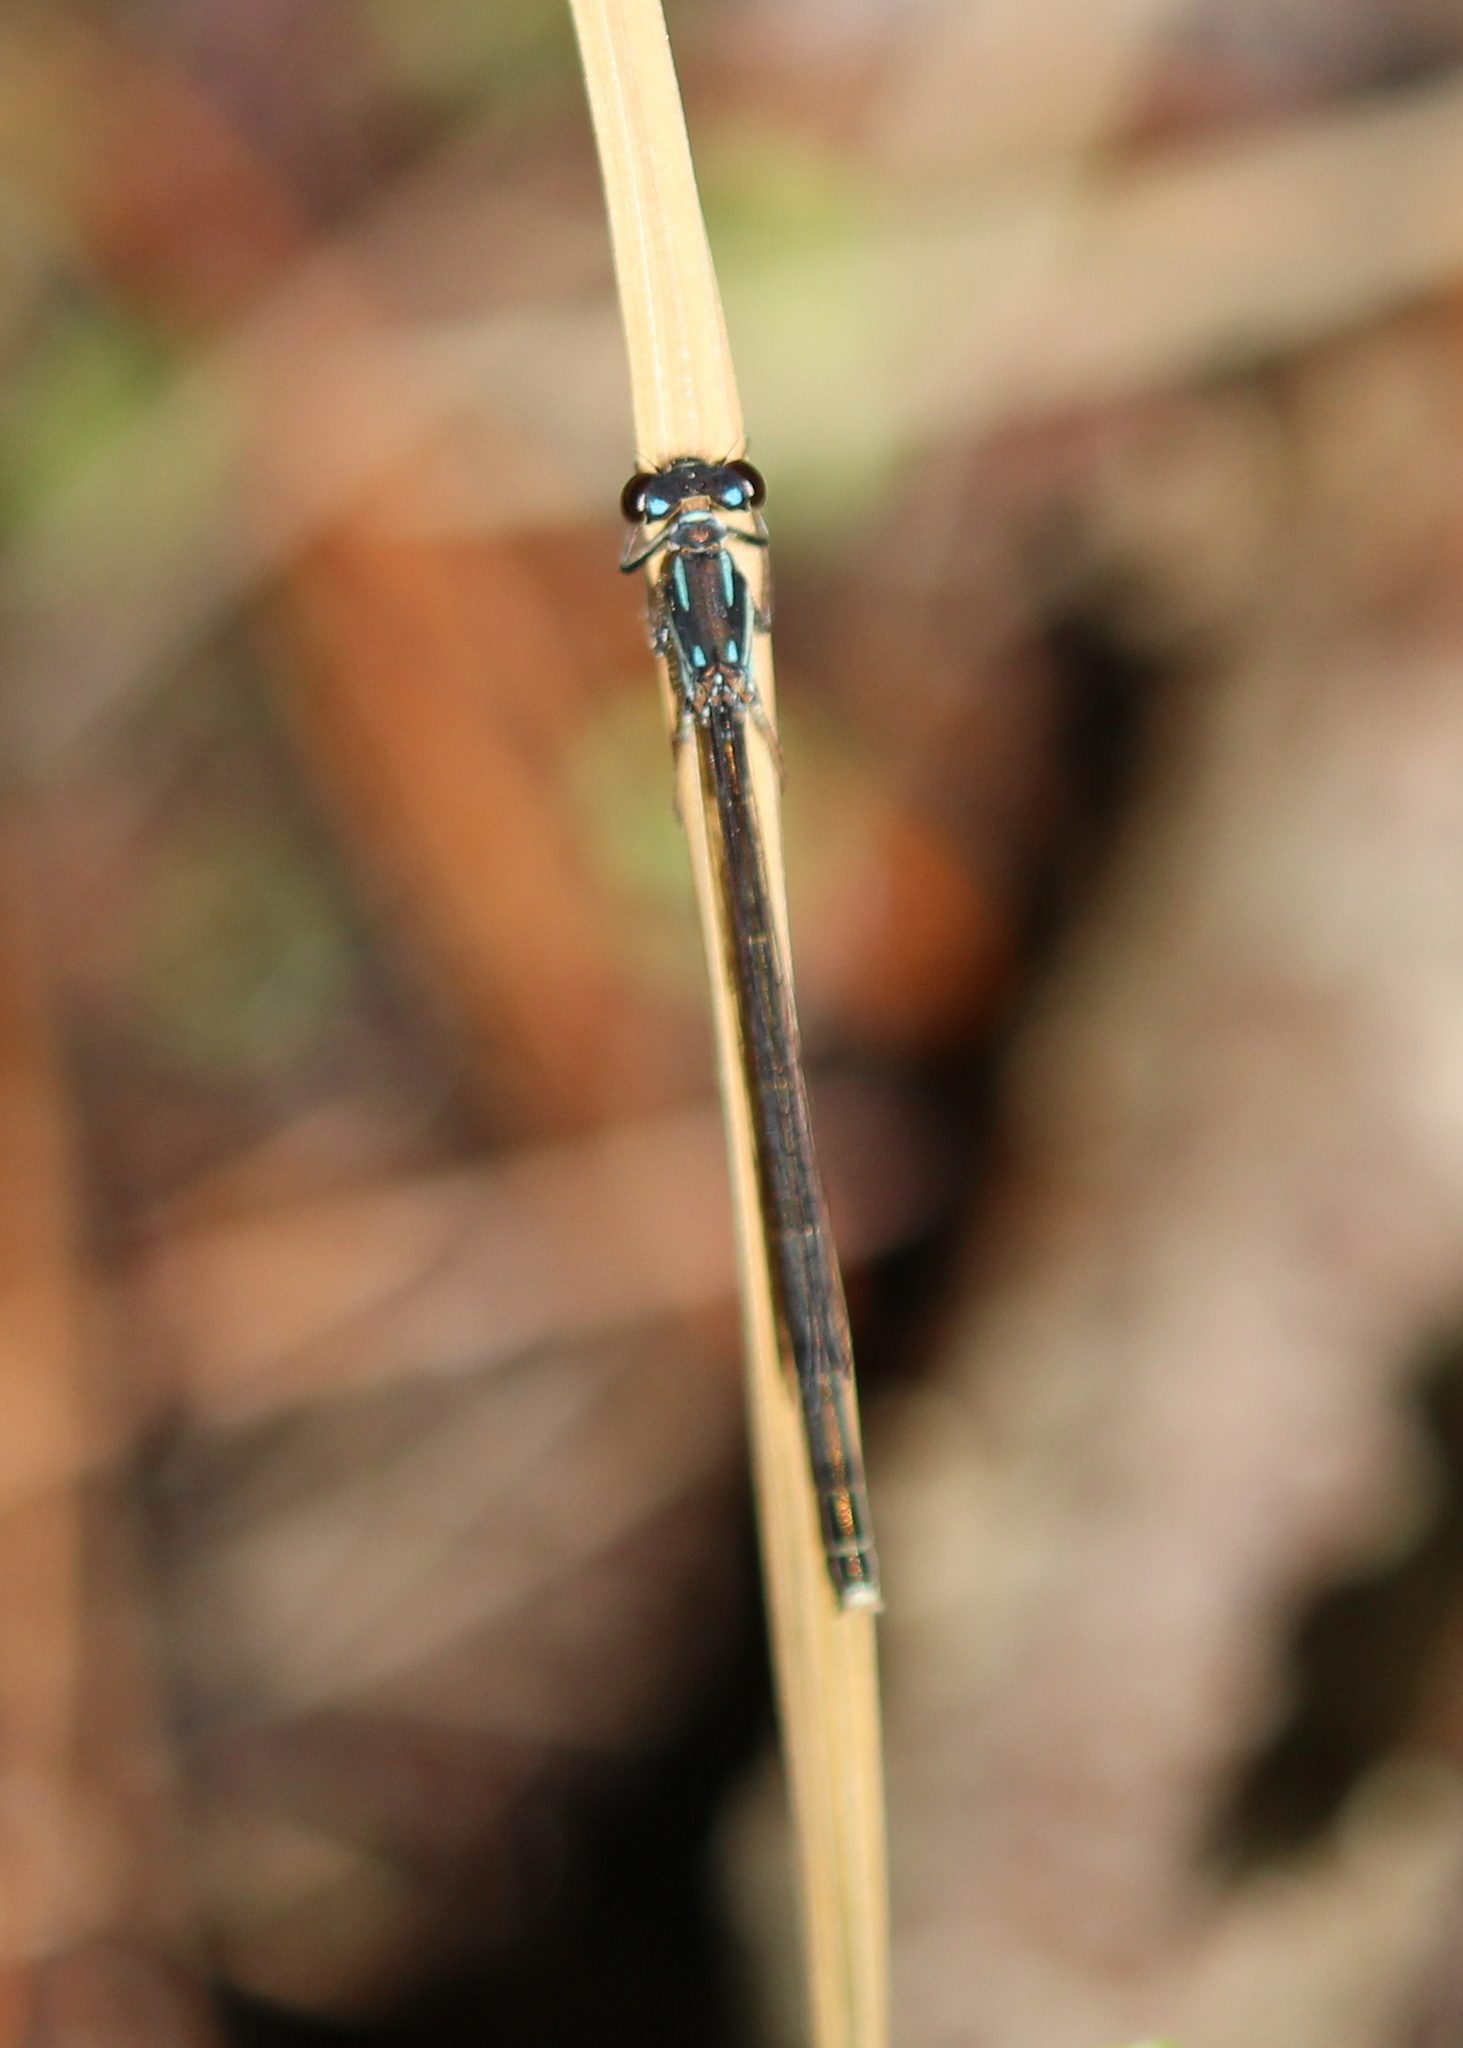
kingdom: Animalia
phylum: Arthropoda
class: Insecta
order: Odonata
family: Coenagrionidae
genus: Ischnura
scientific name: Ischnura posita
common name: Fragile forktail
